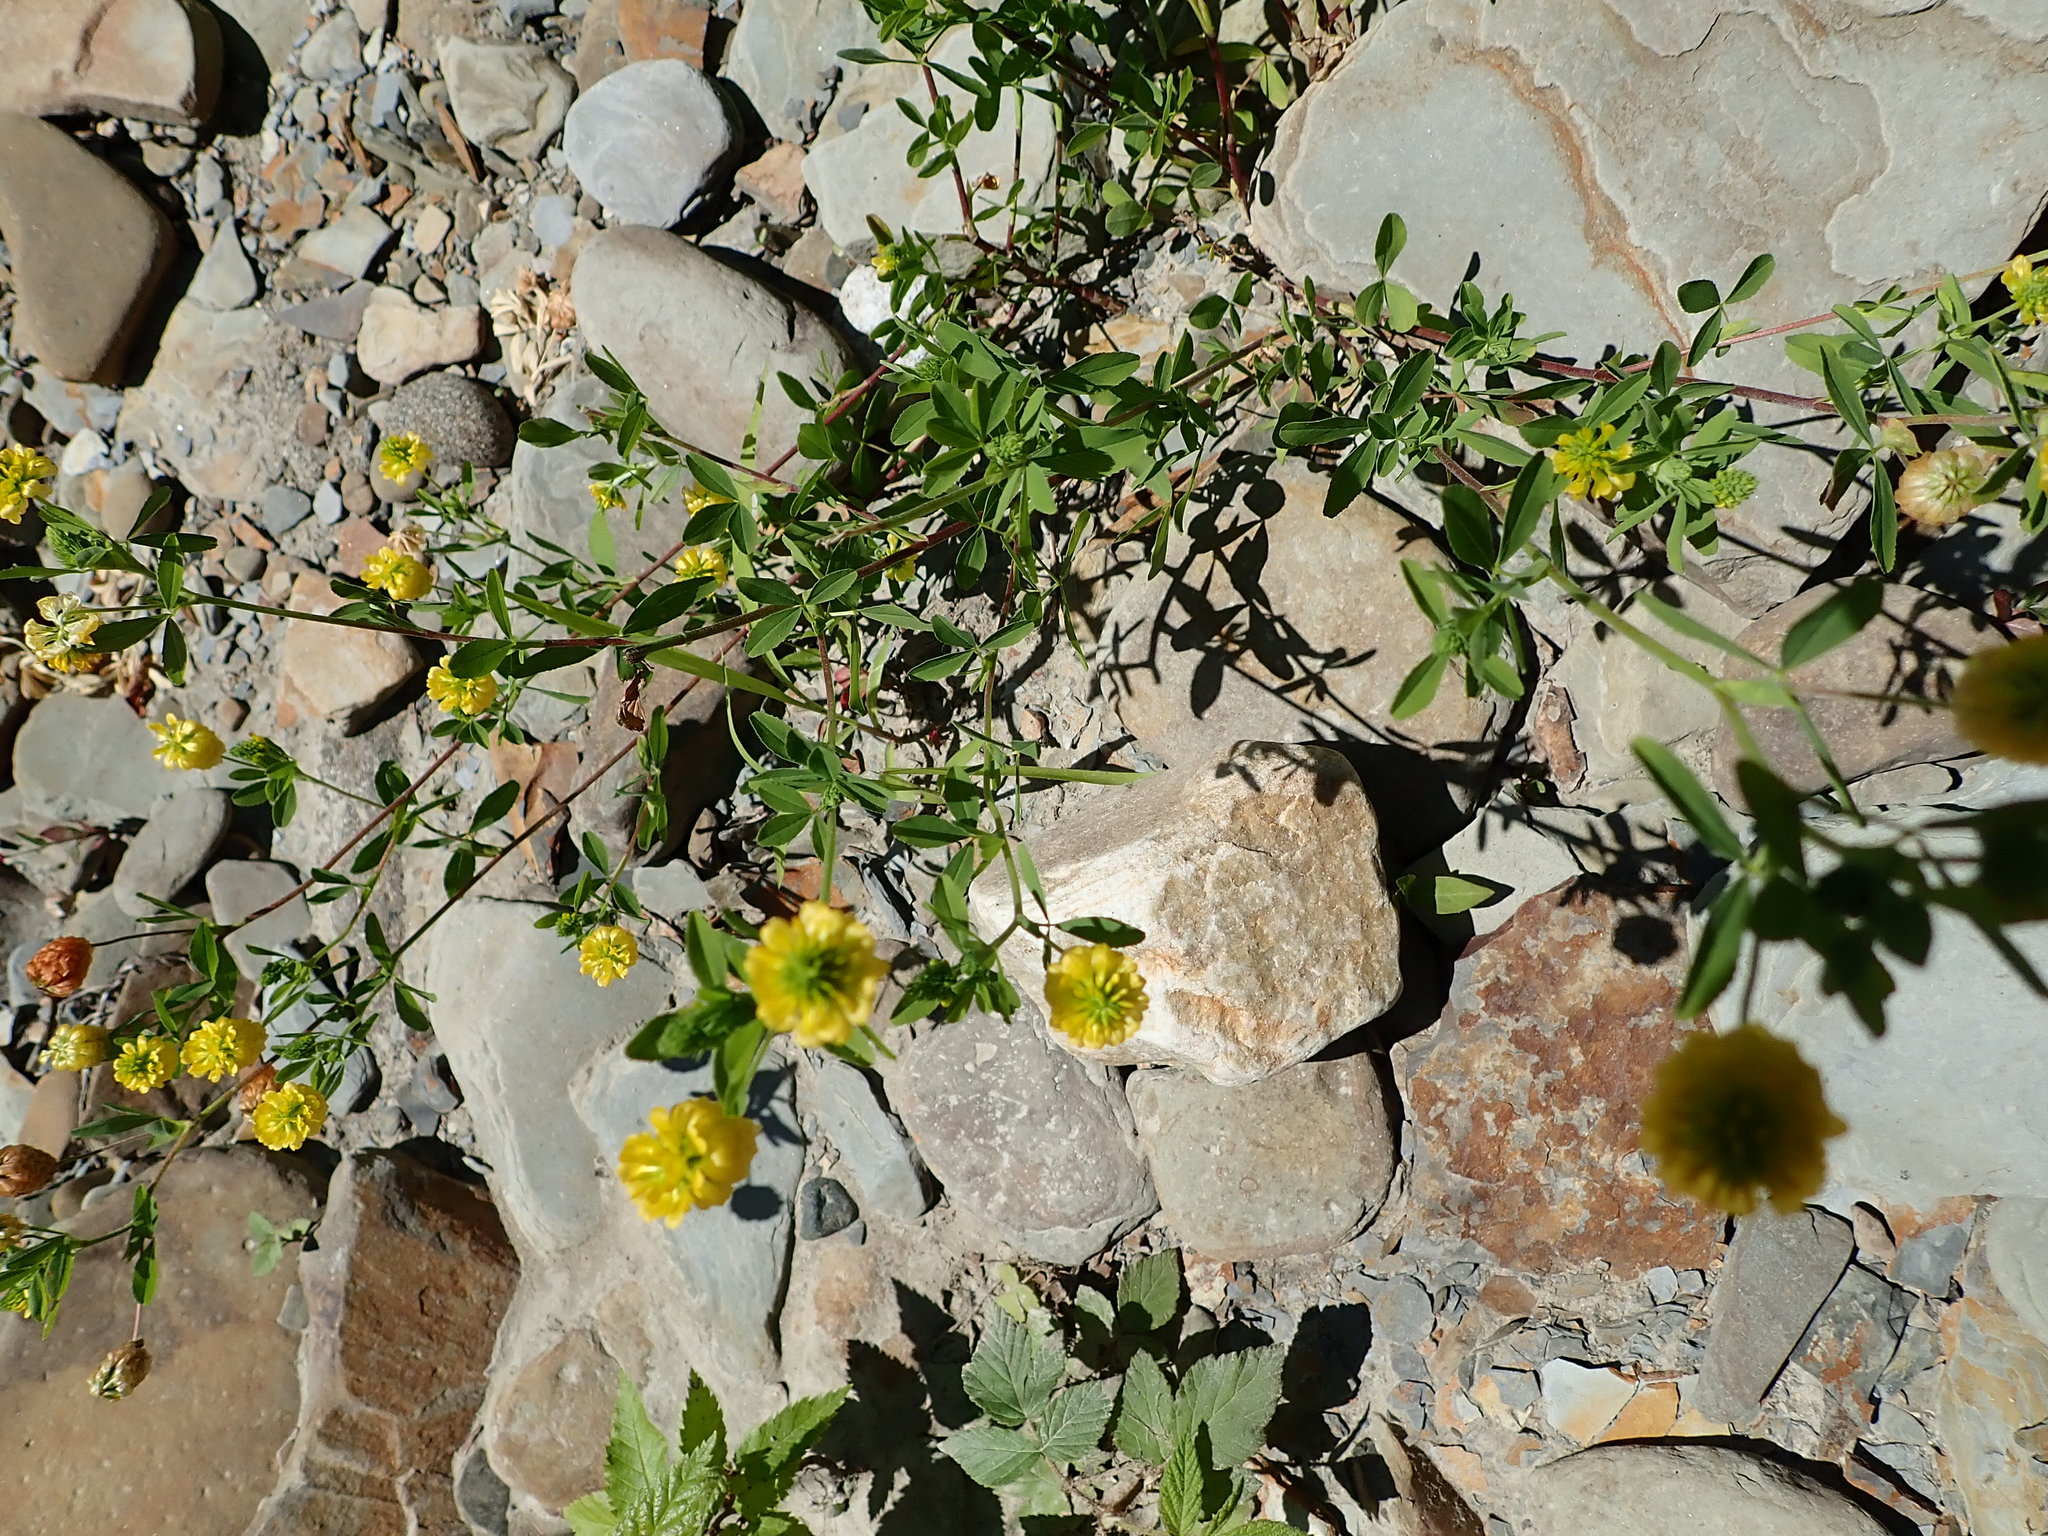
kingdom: Plantae
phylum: Tracheophyta
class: Magnoliopsida
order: Fabales
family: Fabaceae
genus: Trifolium
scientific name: Trifolium aureum
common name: Golden clover
